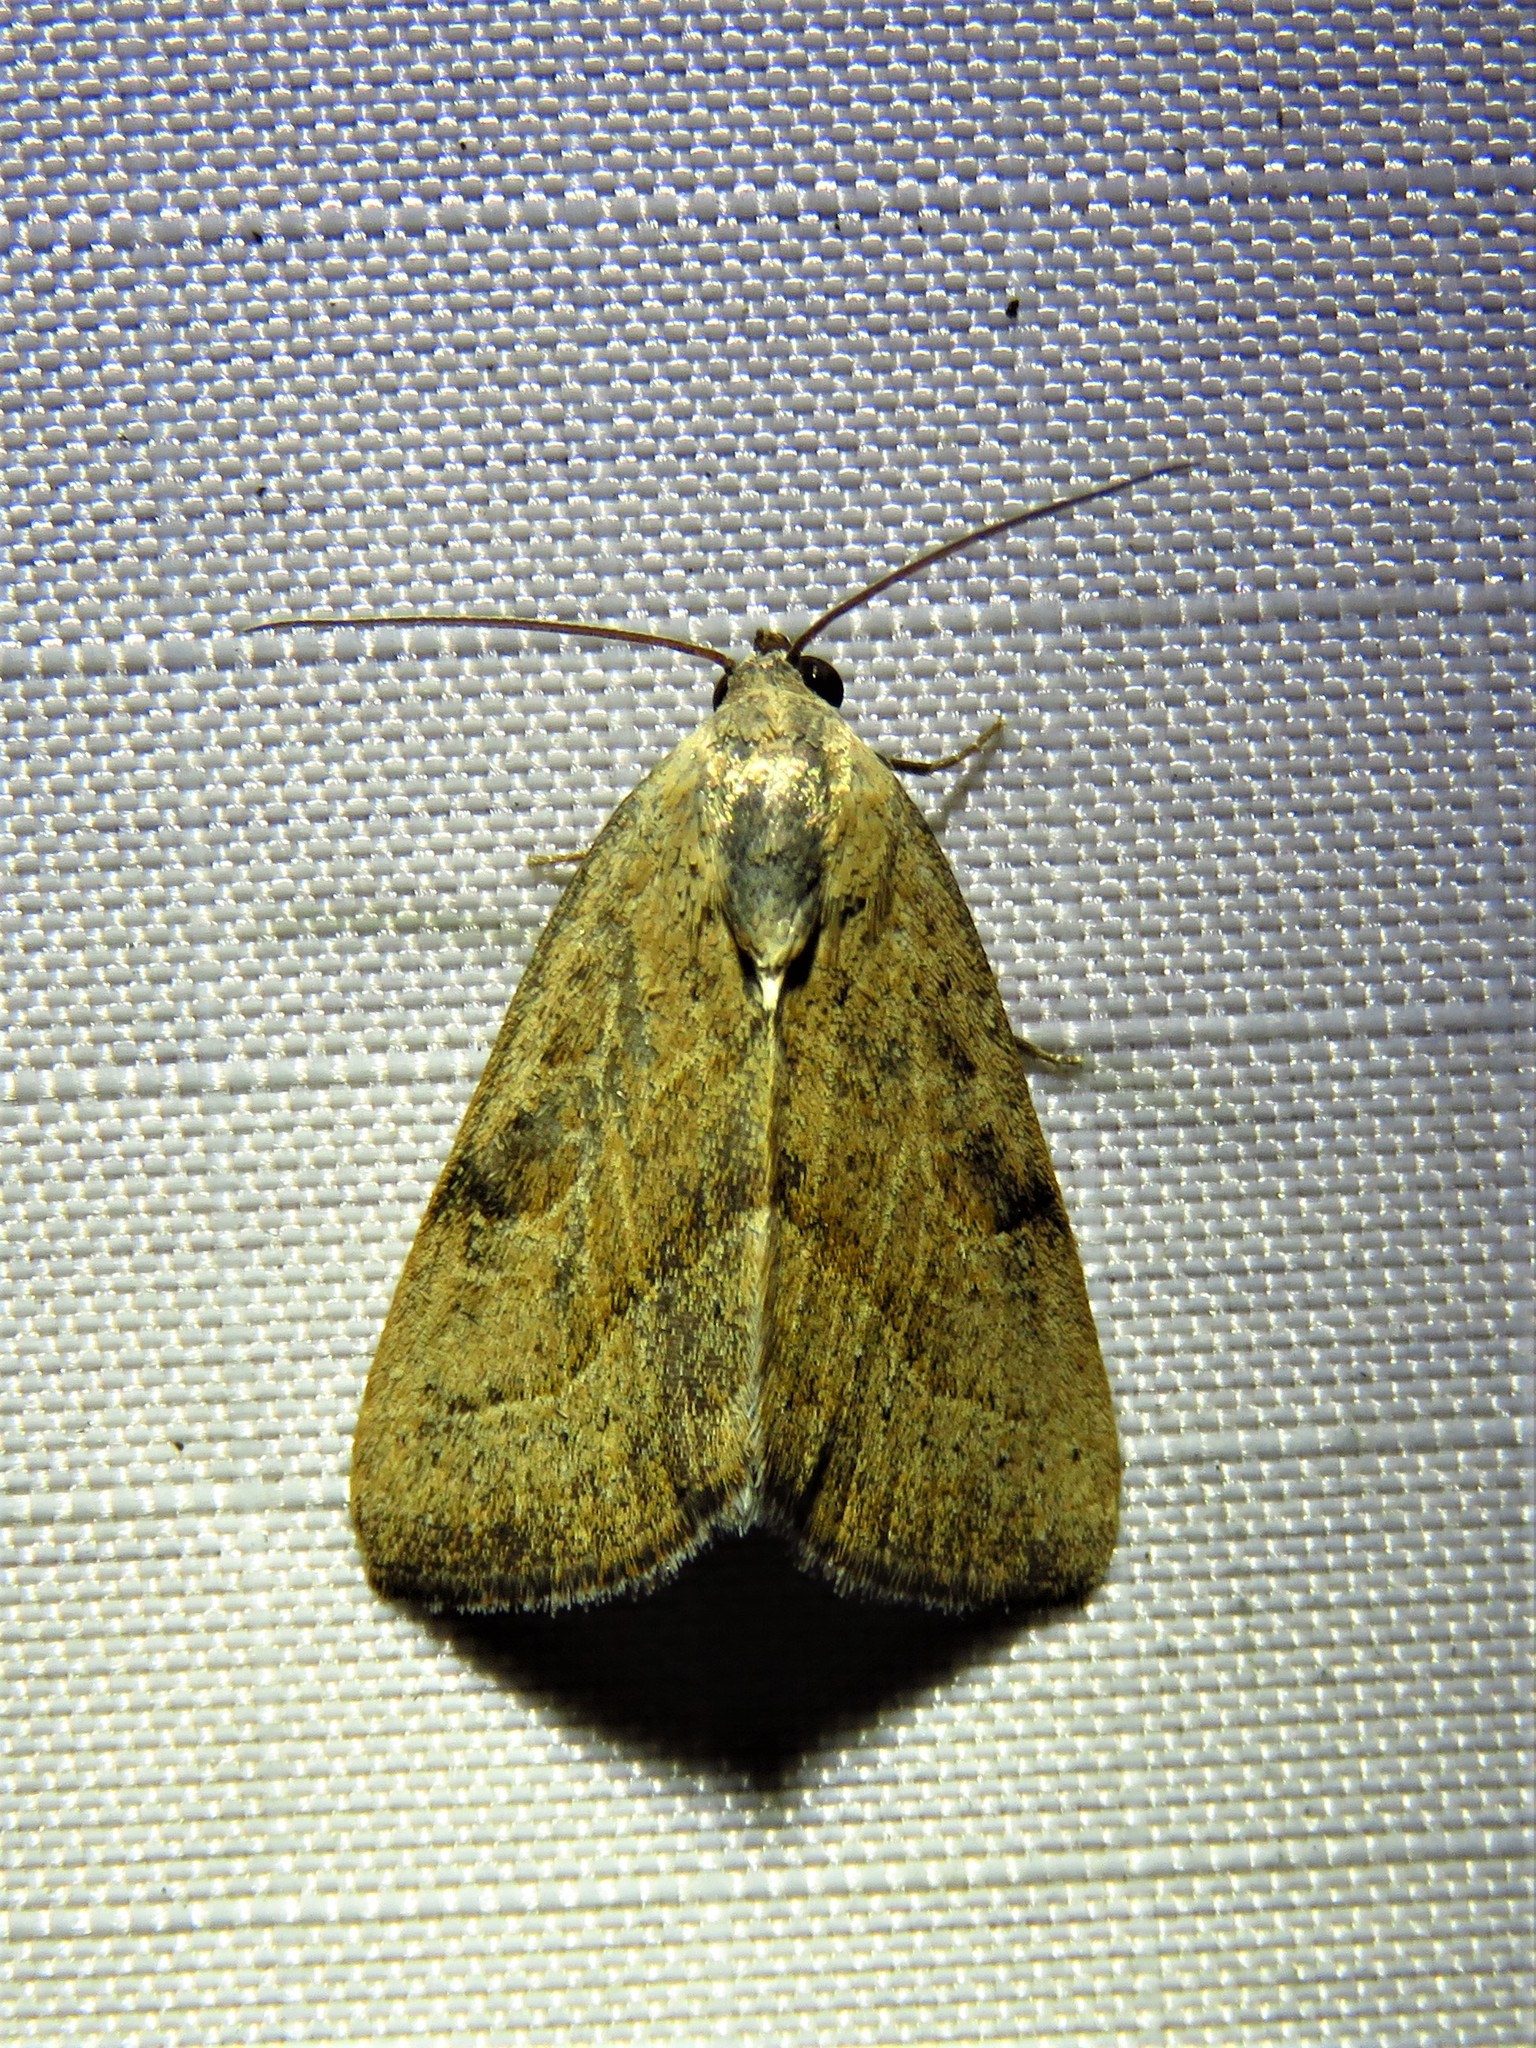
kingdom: Animalia
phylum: Arthropoda
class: Insecta
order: Lepidoptera
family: Noctuidae
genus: Galgula
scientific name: Galgula partita
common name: Wedgeling
